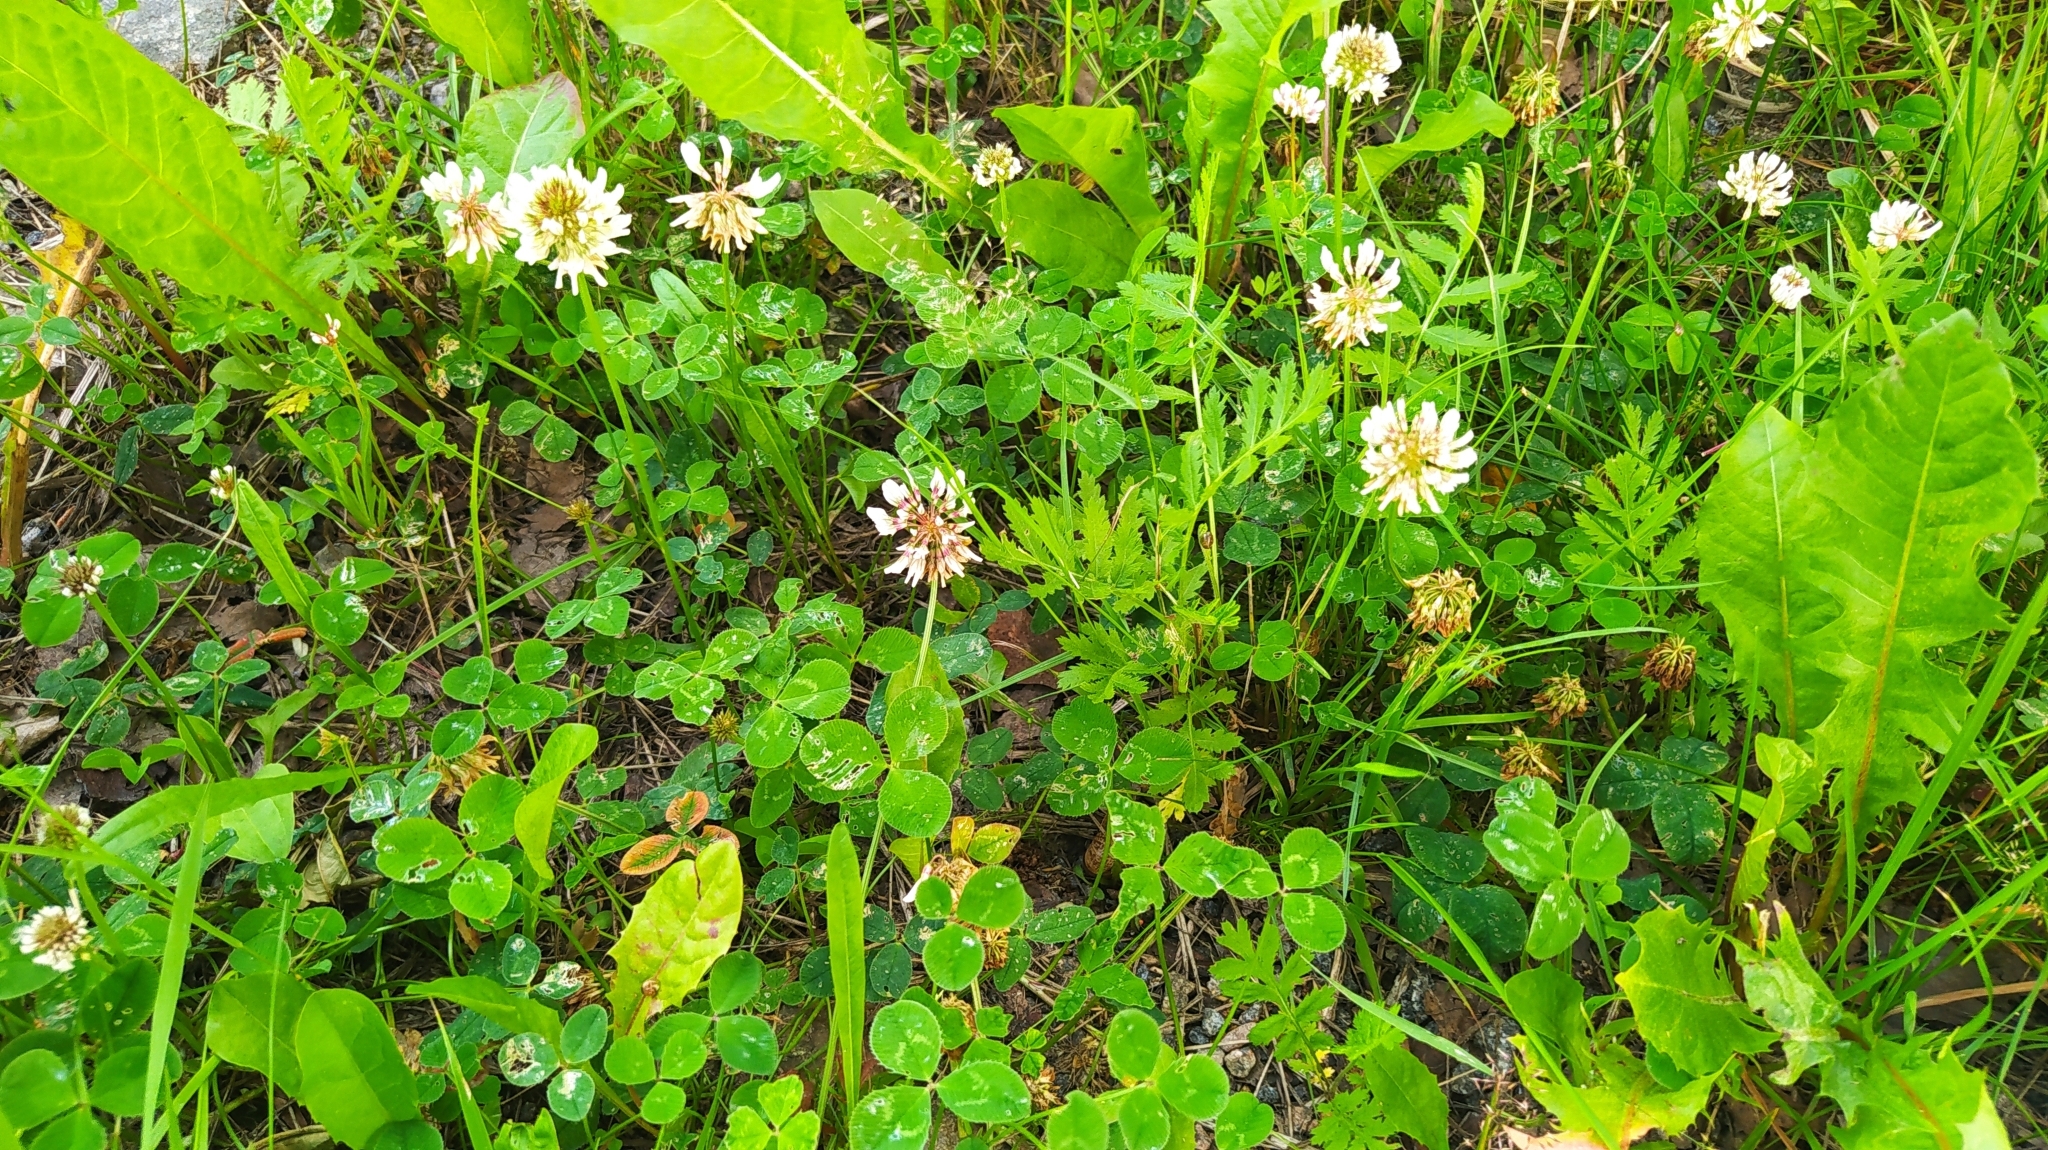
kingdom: Plantae
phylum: Tracheophyta
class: Magnoliopsida
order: Fabales
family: Fabaceae
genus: Trifolium
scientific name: Trifolium repens
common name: White clover
